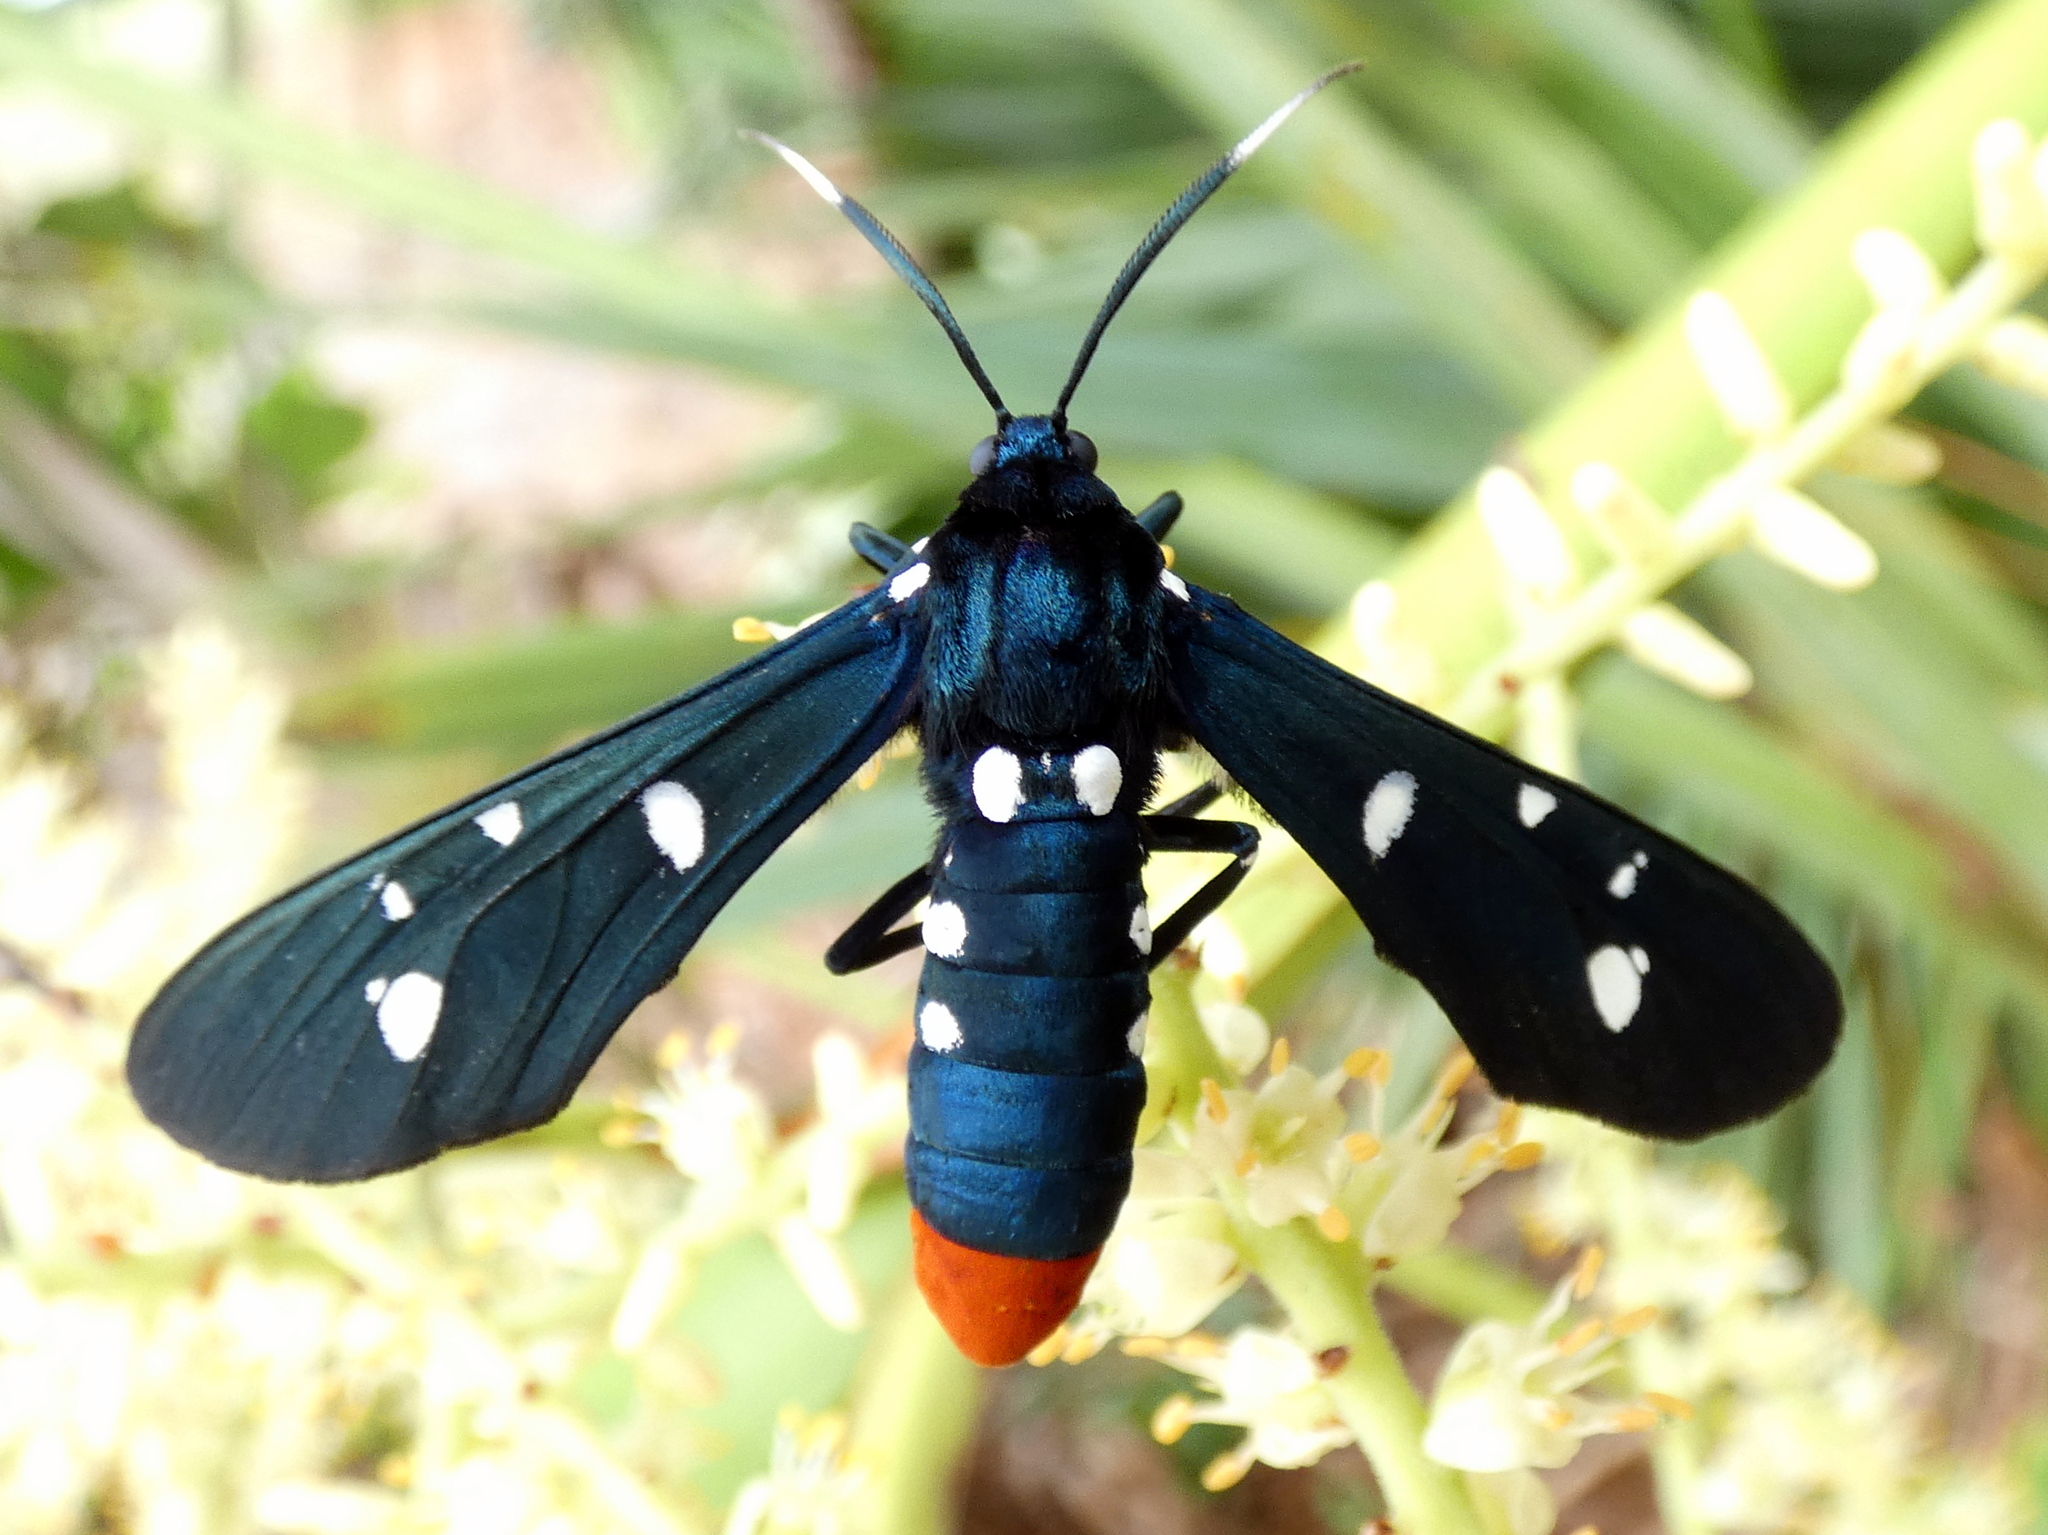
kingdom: Animalia
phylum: Arthropoda
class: Insecta
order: Lepidoptera
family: Erebidae
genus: Syntomeida
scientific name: Syntomeida epilais
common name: Polka-dot wasp moth
